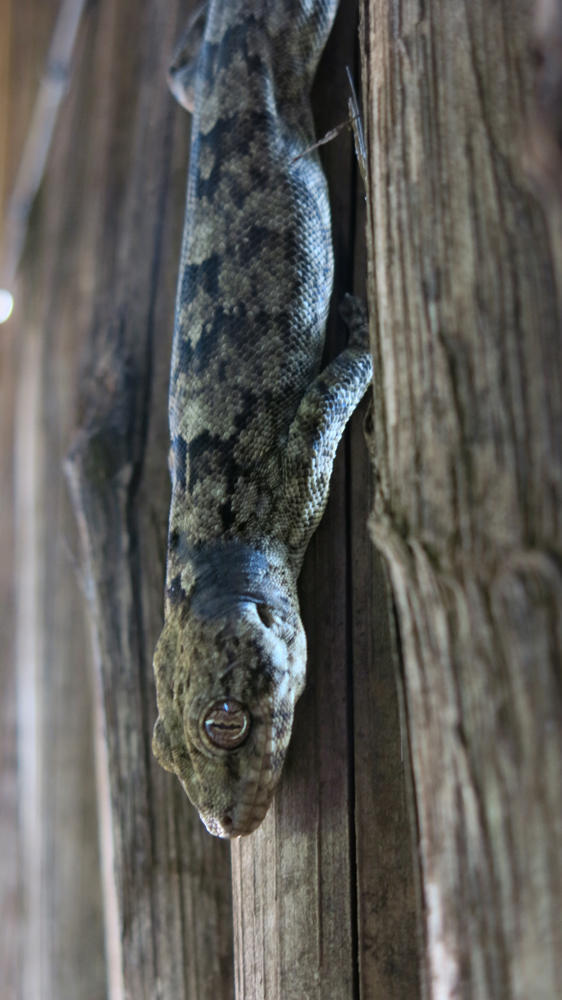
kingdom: Animalia
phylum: Chordata
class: Squamata
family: Gekkonidae
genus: Homopholis
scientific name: Homopholis walbergii
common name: Wahlberg’s velvet gecko
